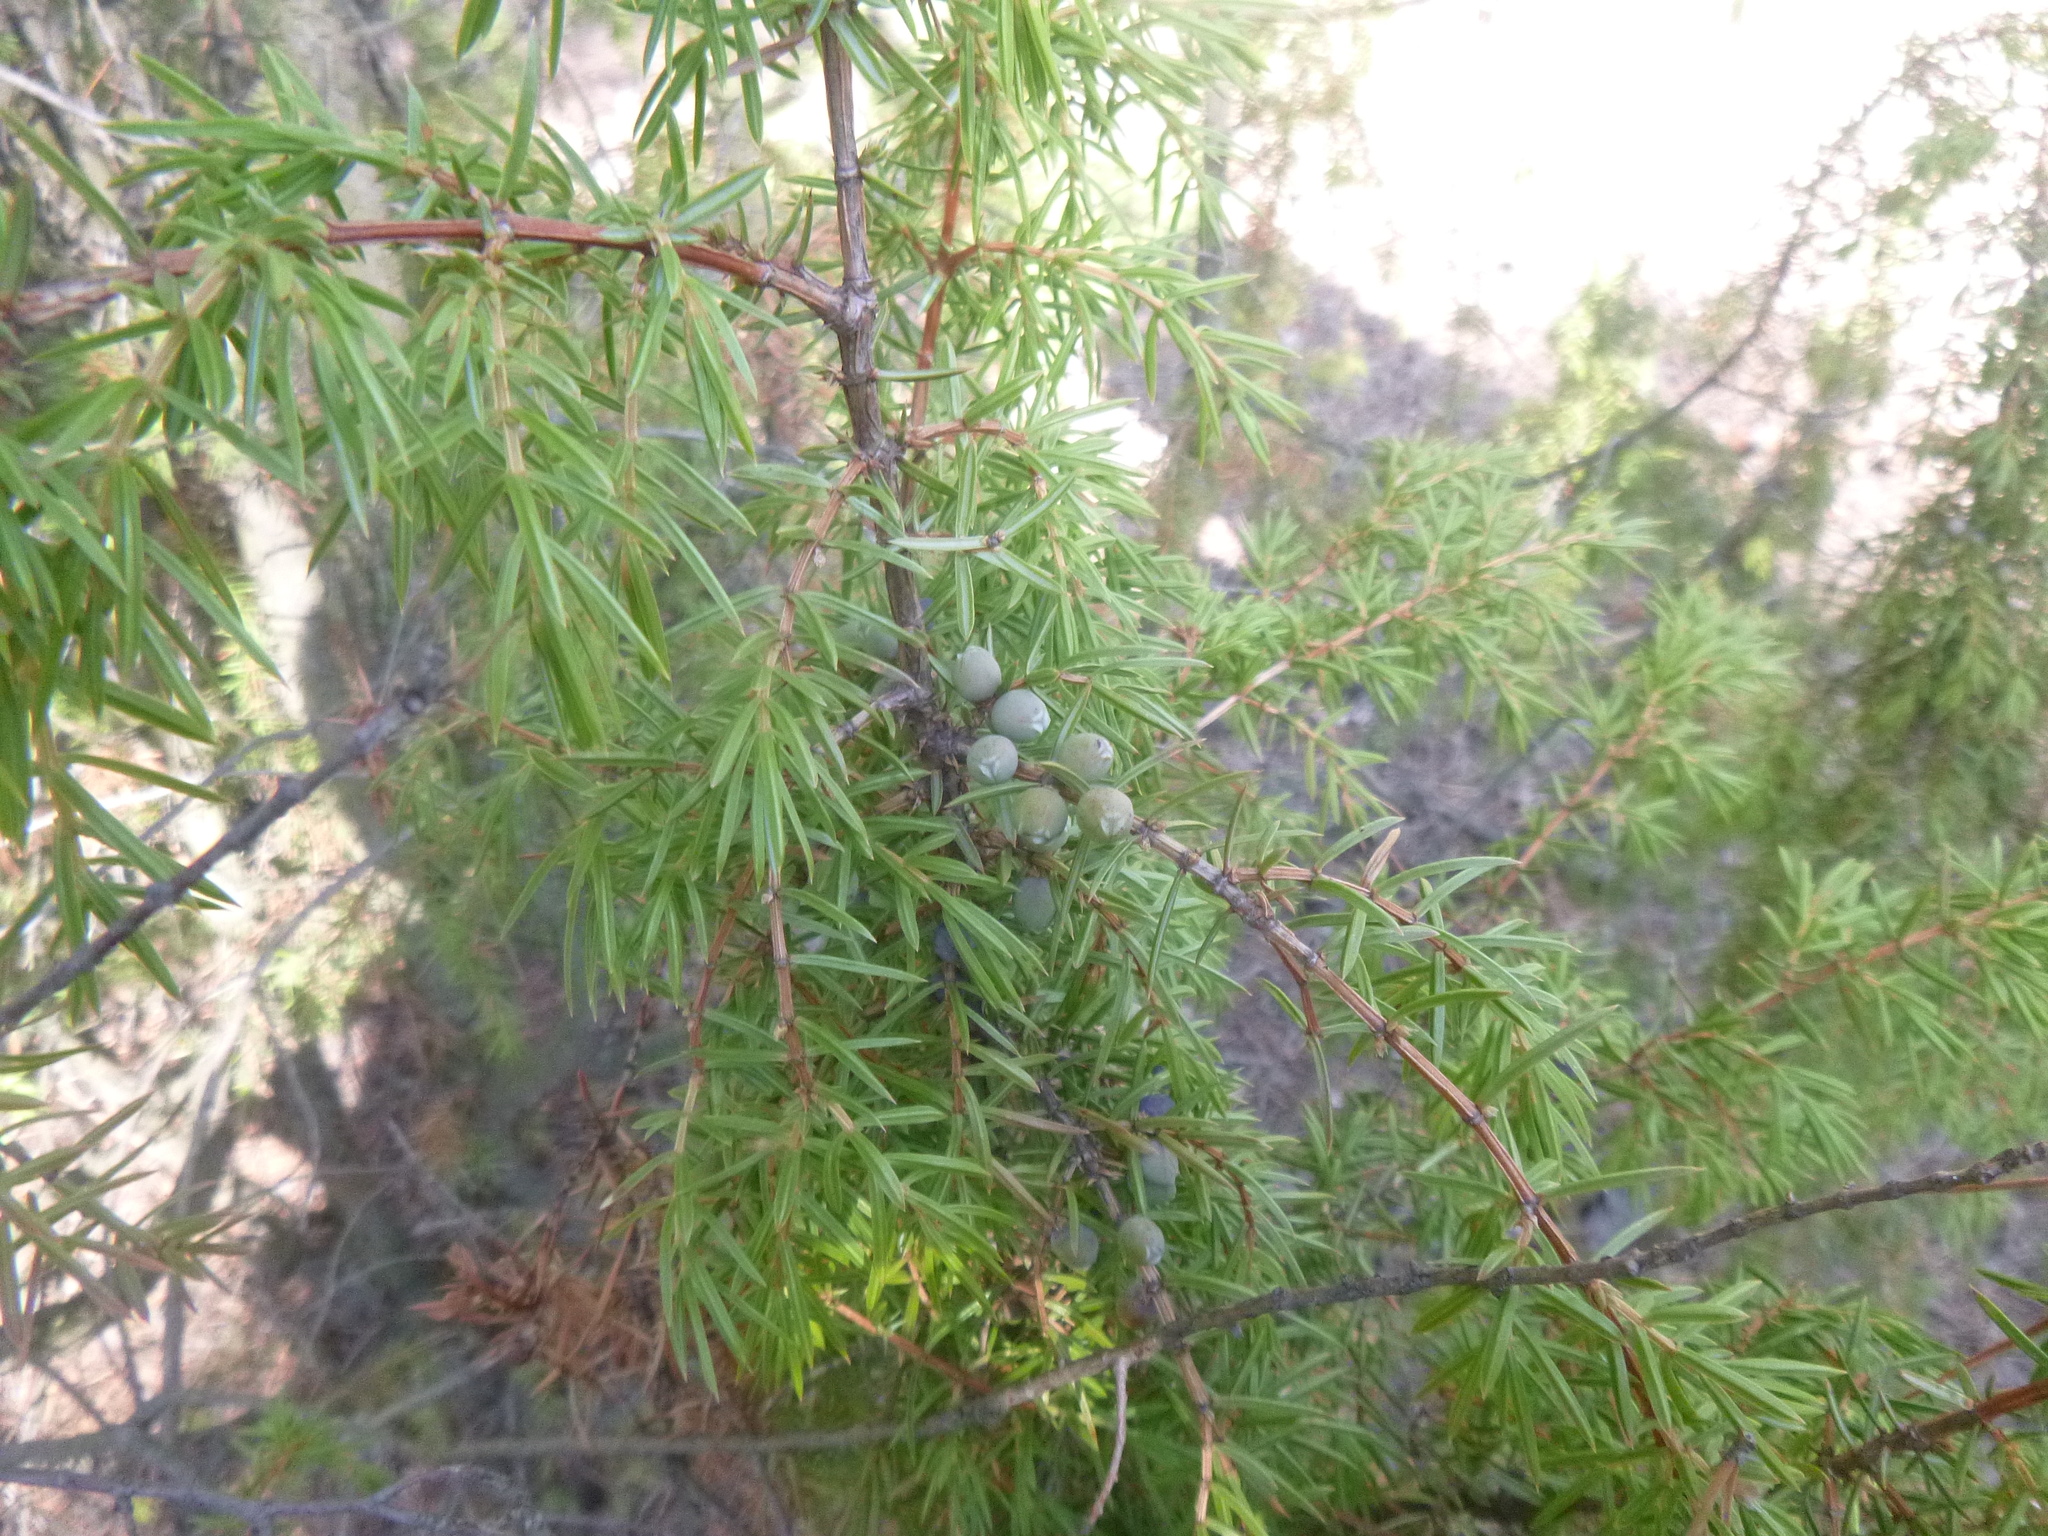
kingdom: Plantae
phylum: Tracheophyta
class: Pinopsida
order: Pinales
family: Cupressaceae
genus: Juniperus
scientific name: Juniperus communis
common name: Common juniper
